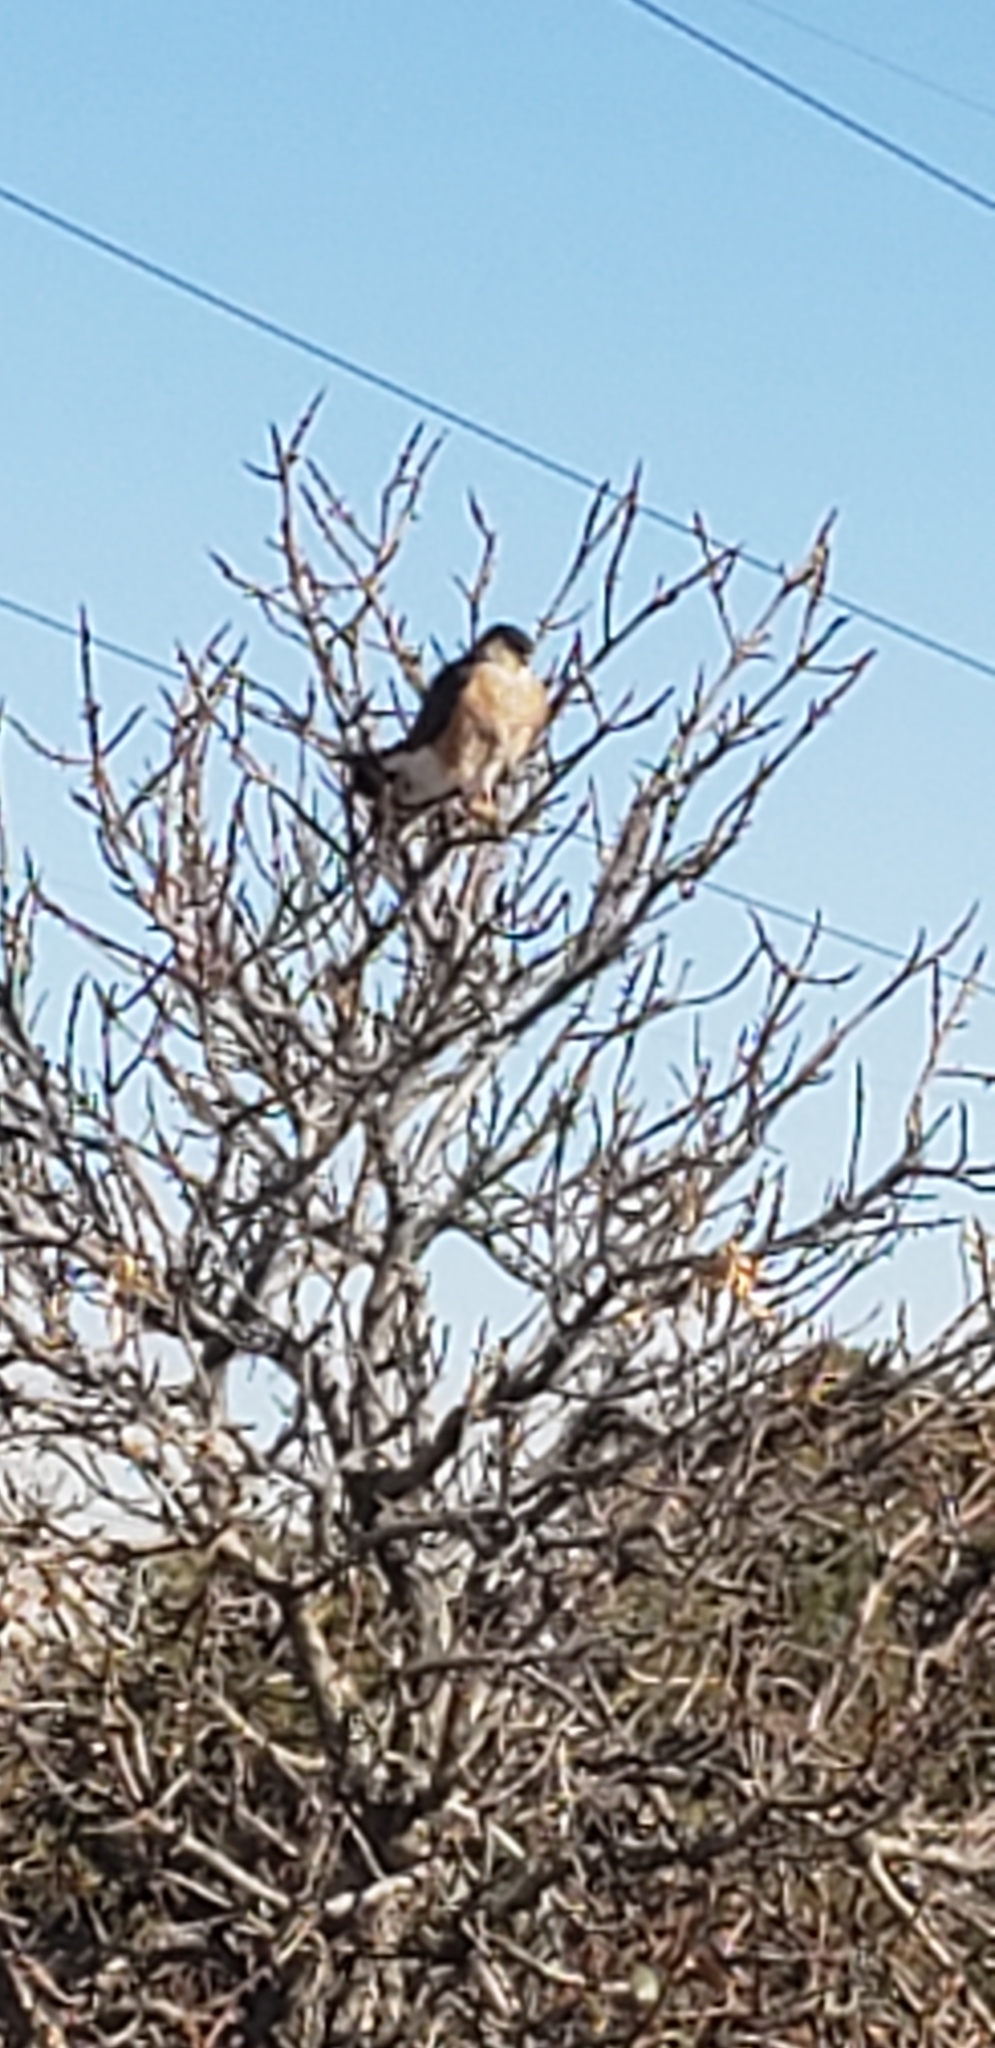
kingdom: Animalia
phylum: Chordata
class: Aves
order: Accipitriformes
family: Accipitridae
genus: Accipiter
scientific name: Accipiter striatus
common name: Sharp-shinned hawk
